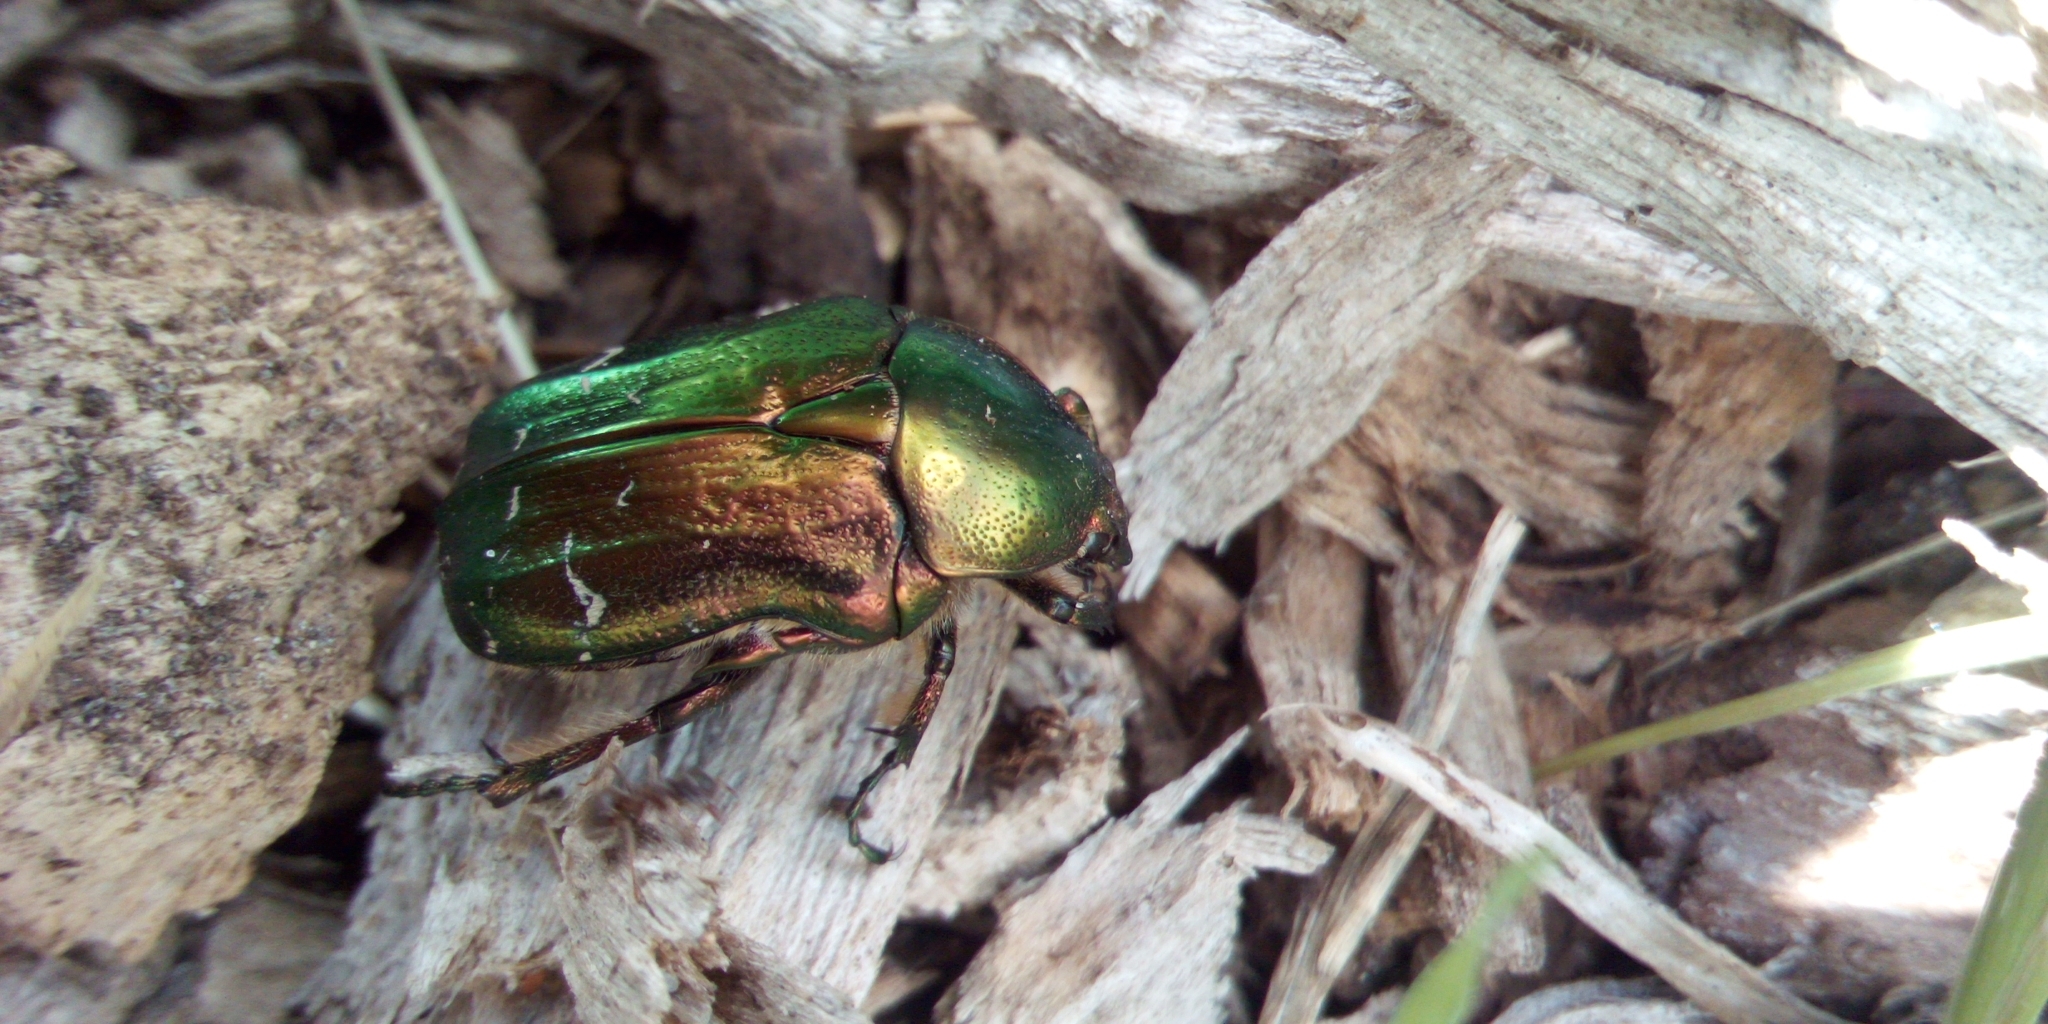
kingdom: Animalia
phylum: Arthropoda
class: Insecta
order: Coleoptera
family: Scarabaeidae
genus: Cetonia
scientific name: Cetonia aurata
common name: Rose chafer
